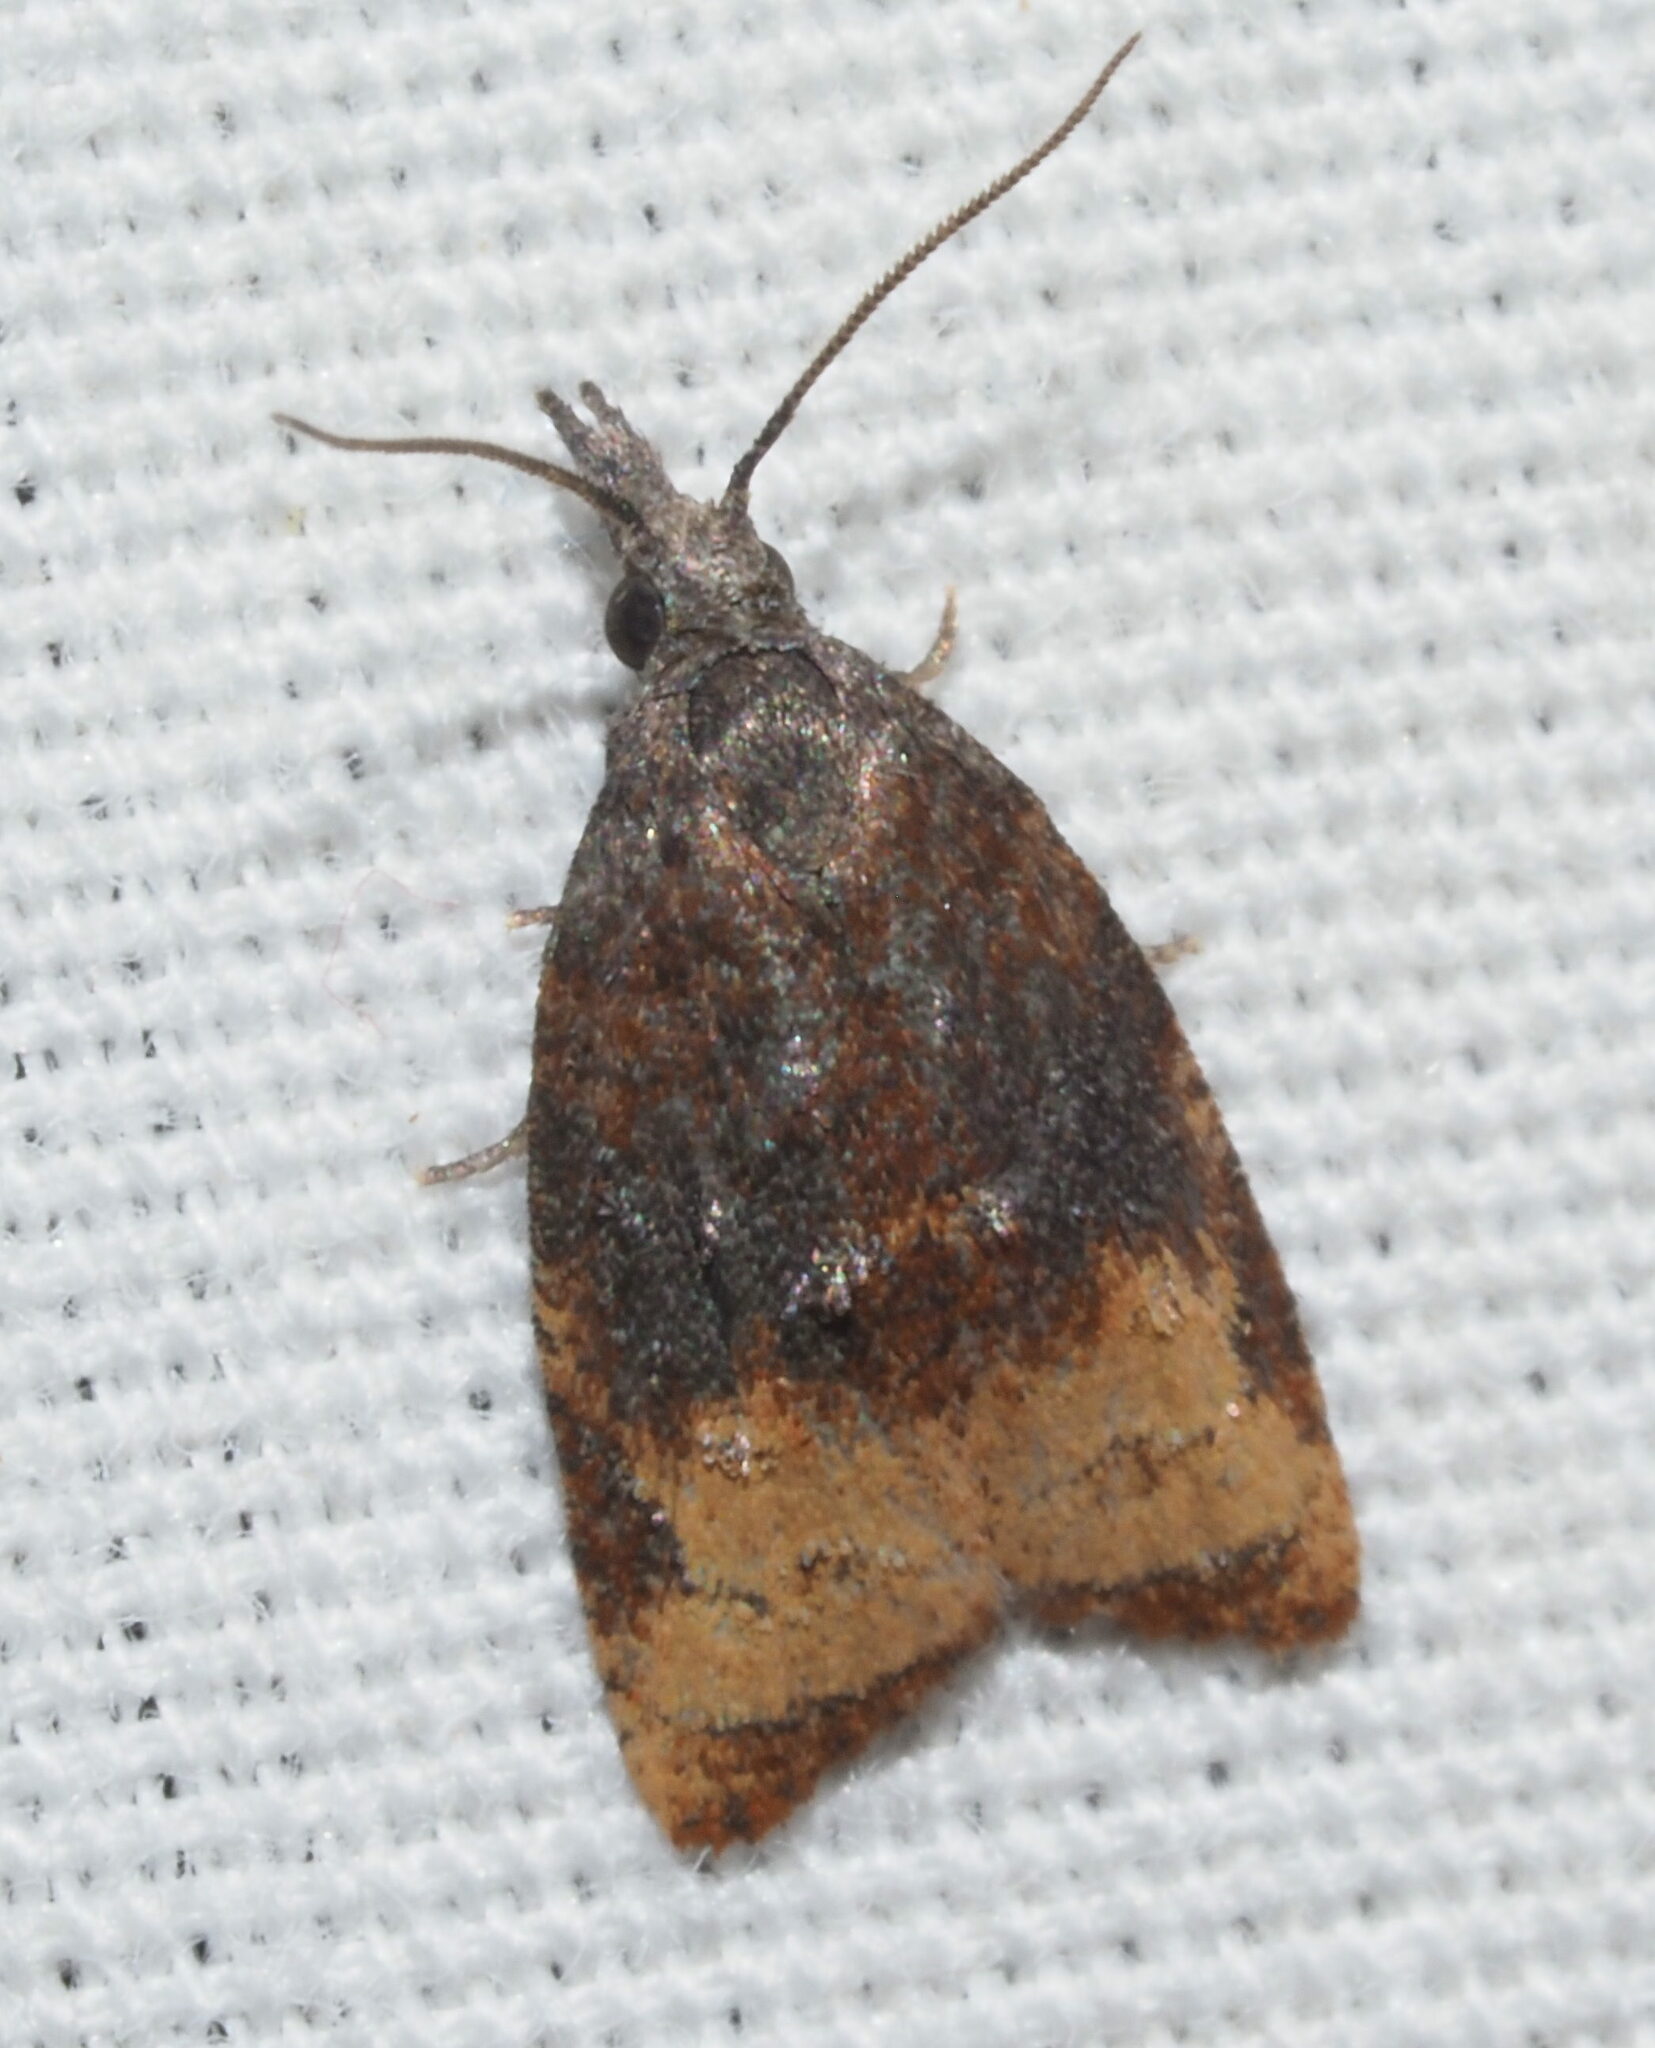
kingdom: Animalia
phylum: Arthropoda
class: Insecta
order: Lepidoptera
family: Tortricidae
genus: Platynota
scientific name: Platynota stultana
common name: Omnivorous leafroller
